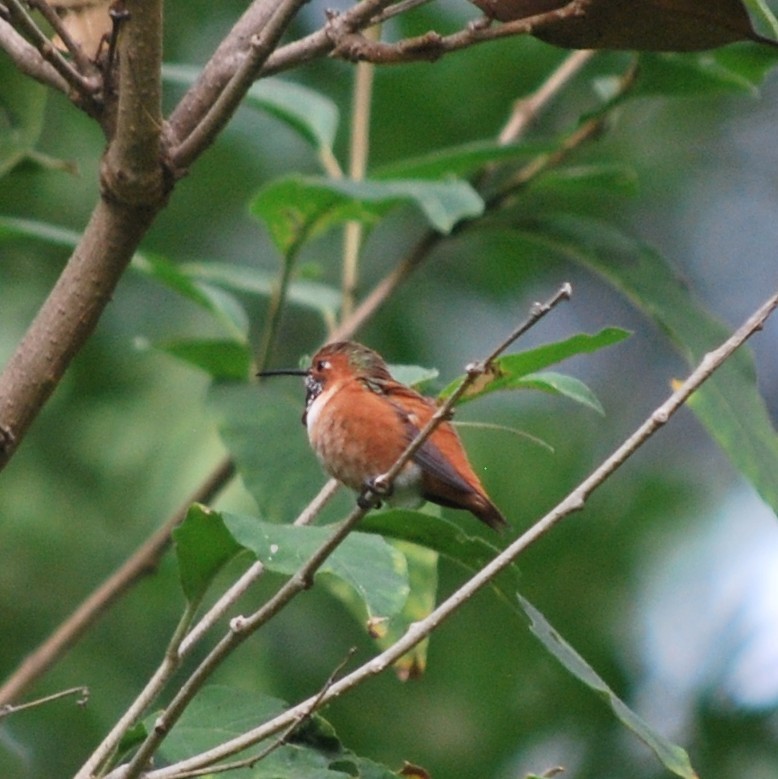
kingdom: Animalia
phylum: Chordata
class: Aves
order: Apodiformes
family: Trochilidae
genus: Selasphorus
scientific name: Selasphorus
